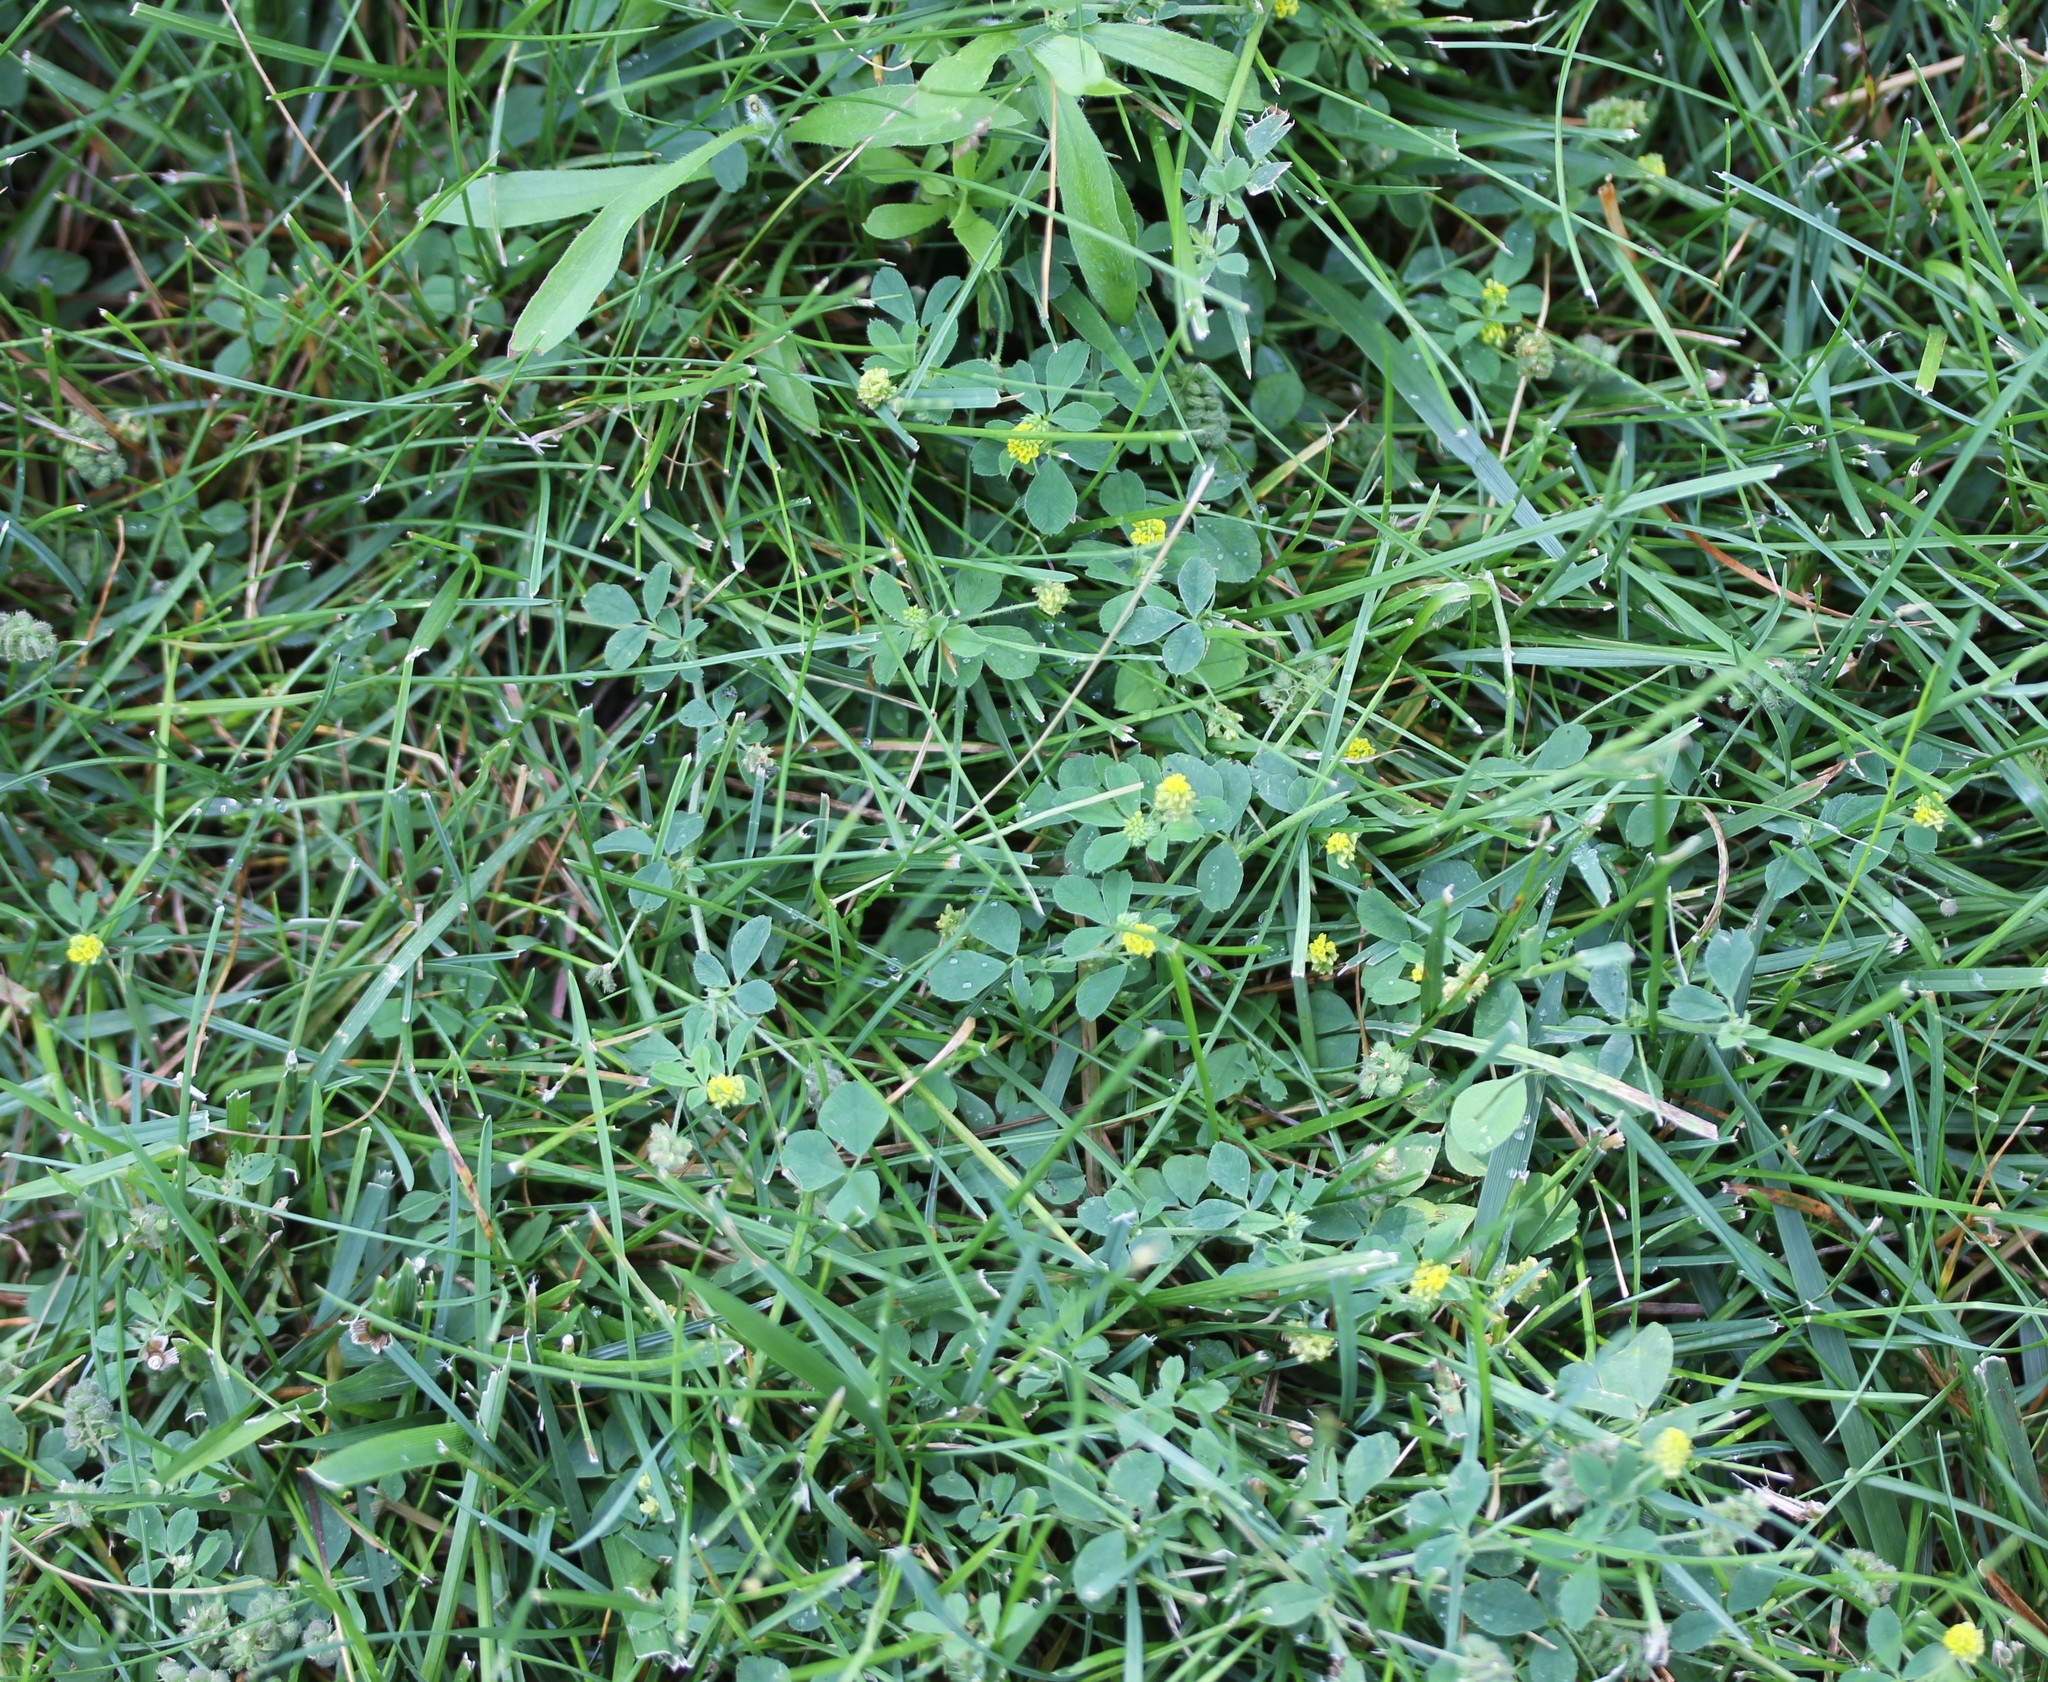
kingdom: Plantae
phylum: Tracheophyta
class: Magnoliopsida
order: Fabales
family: Fabaceae
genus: Medicago
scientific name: Medicago lupulina
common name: Black medick
